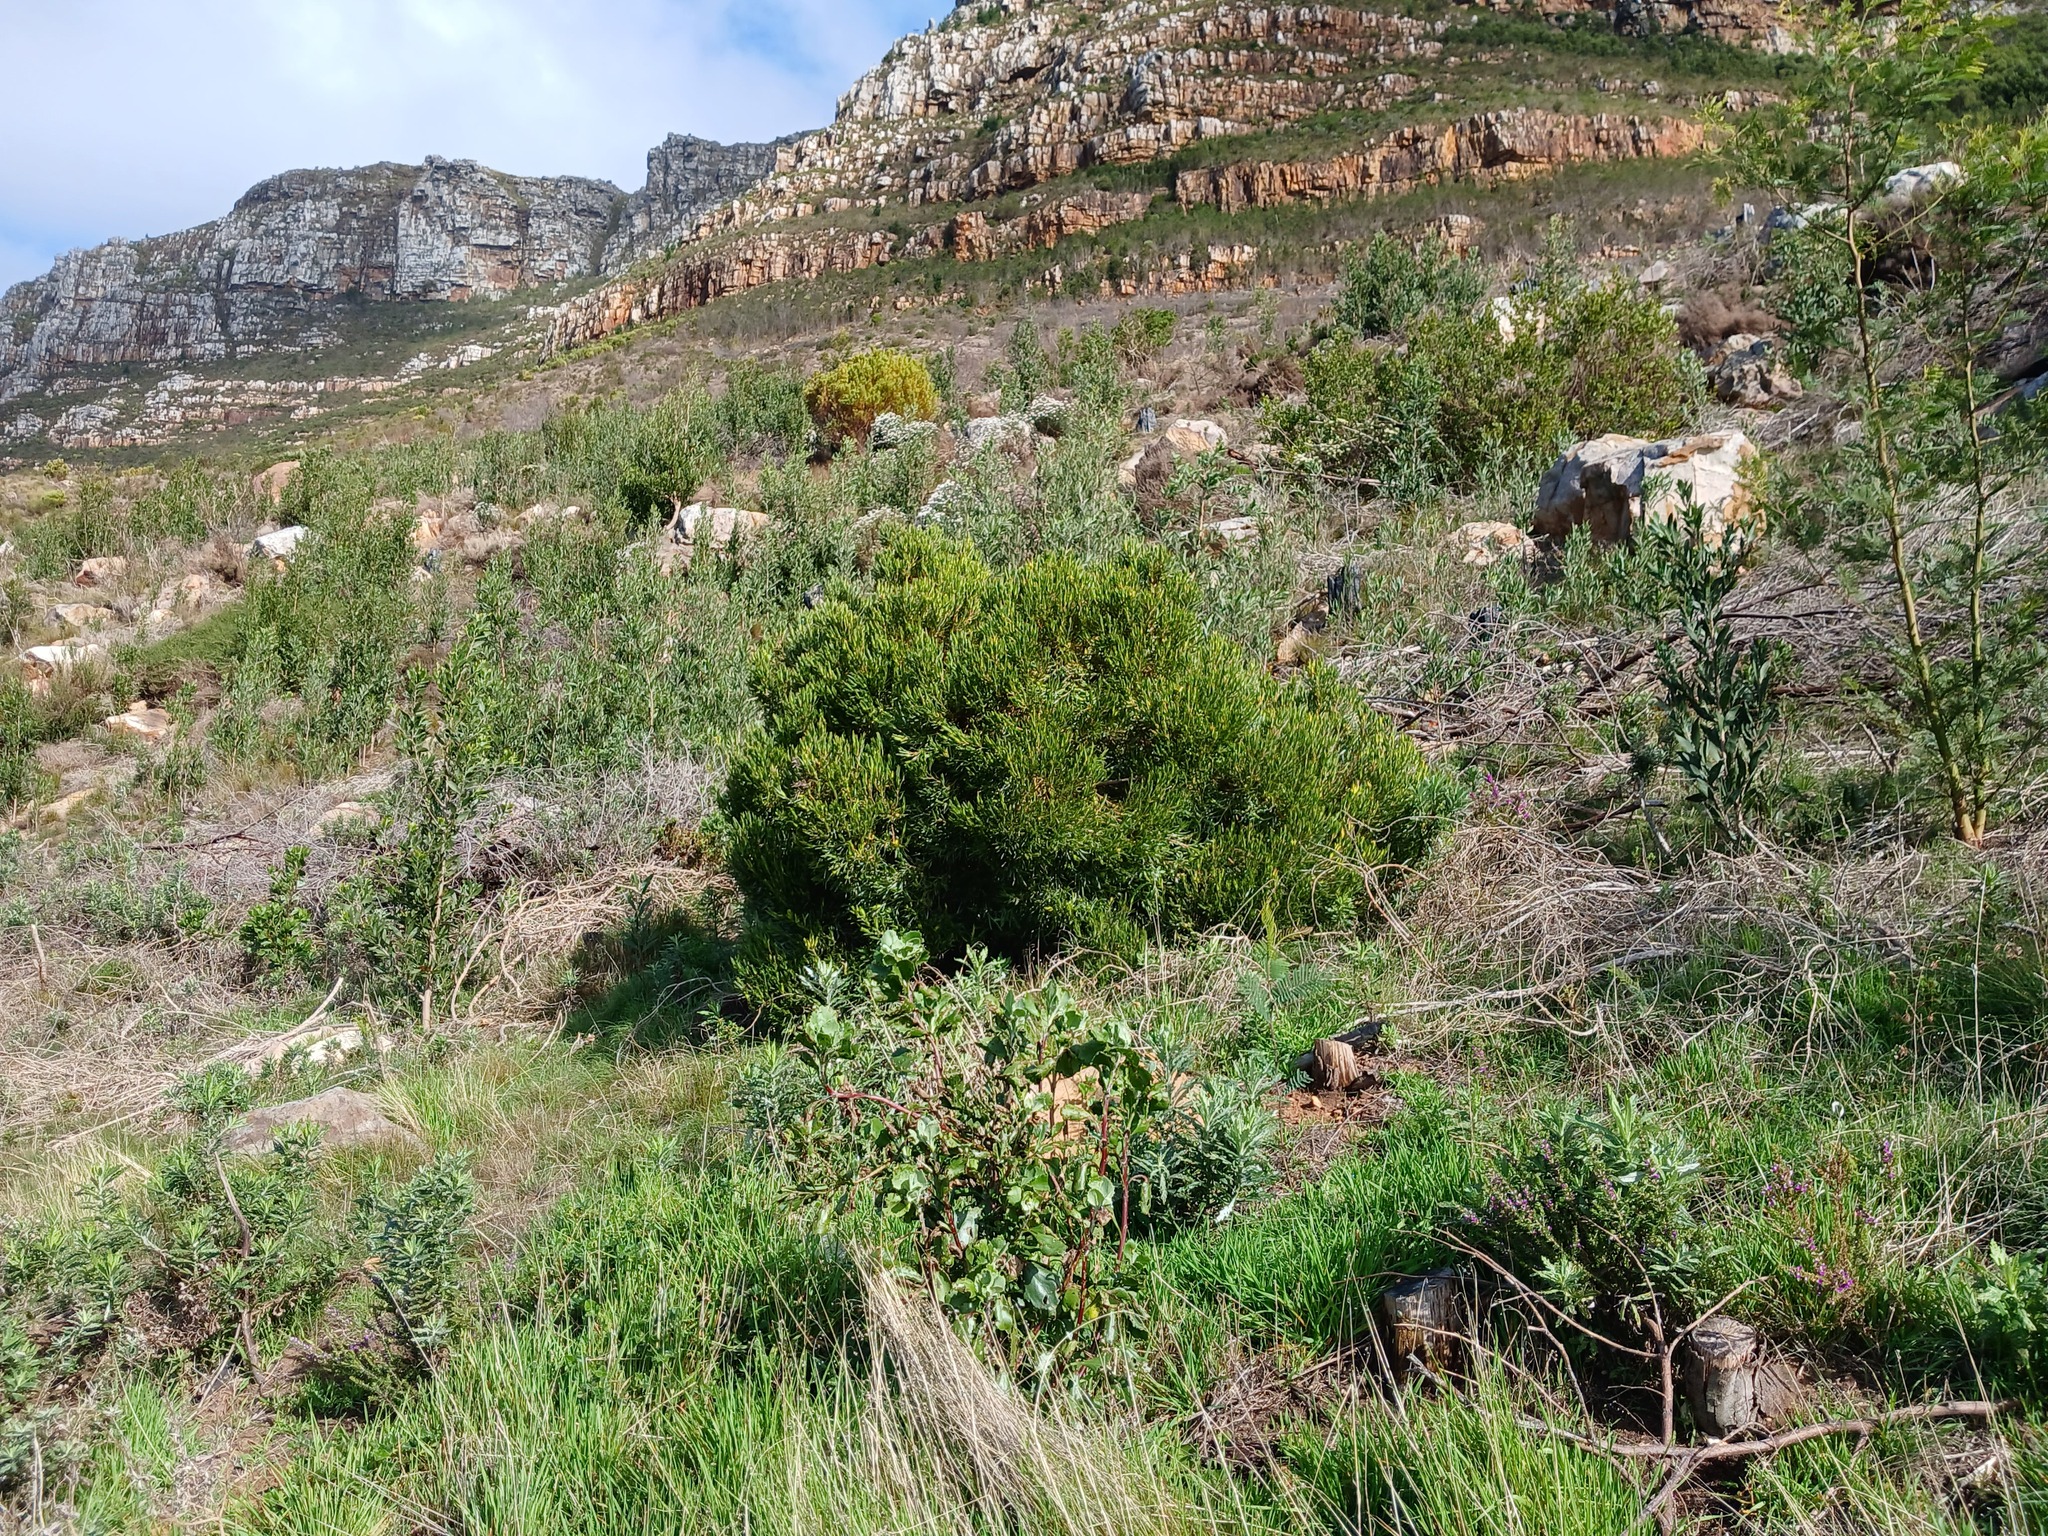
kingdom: Plantae
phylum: Tracheophyta
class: Magnoliopsida
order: Proteales
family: Proteaceae
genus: Leucadendron
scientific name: Leucadendron xanthoconus
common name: Sickle-leaf conebush
